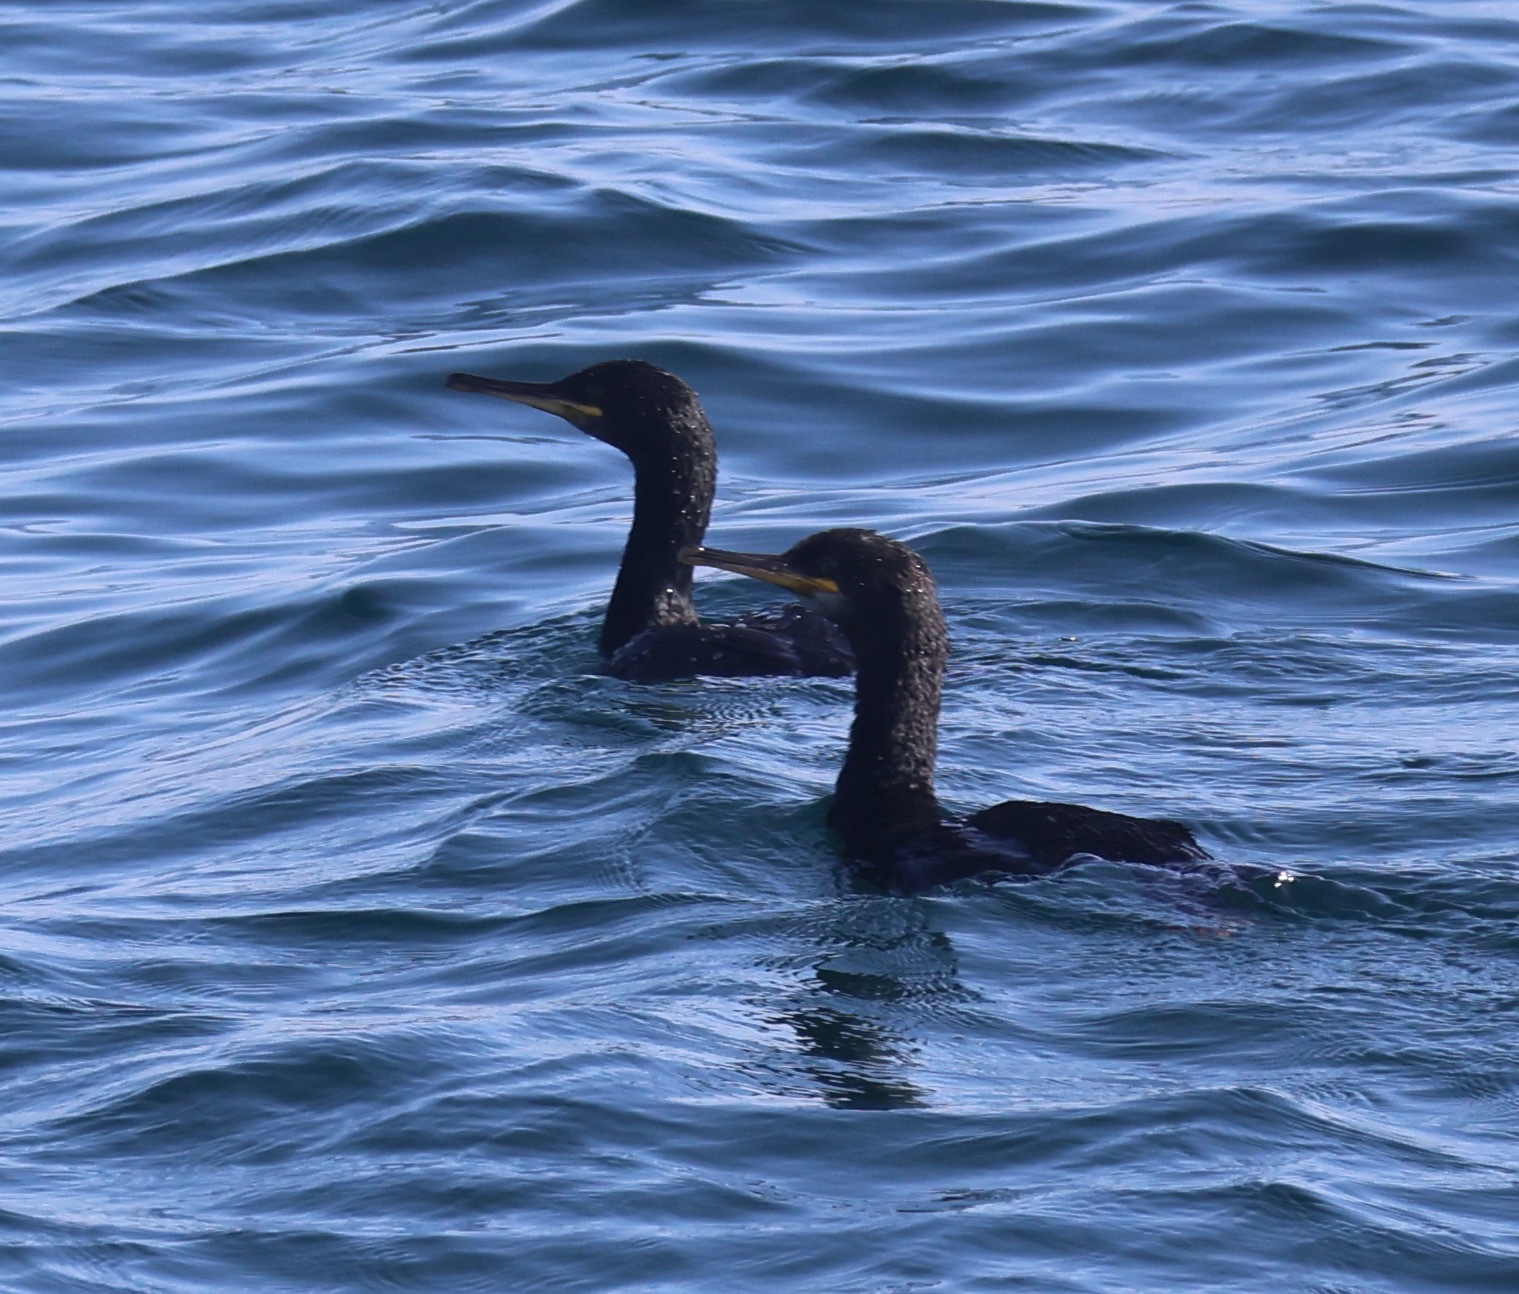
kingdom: Animalia
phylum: Chordata
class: Aves
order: Suliformes
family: Phalacrocoracidae
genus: Phalacrocorax
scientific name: Phalacrocorax aristotelis
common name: European shag
